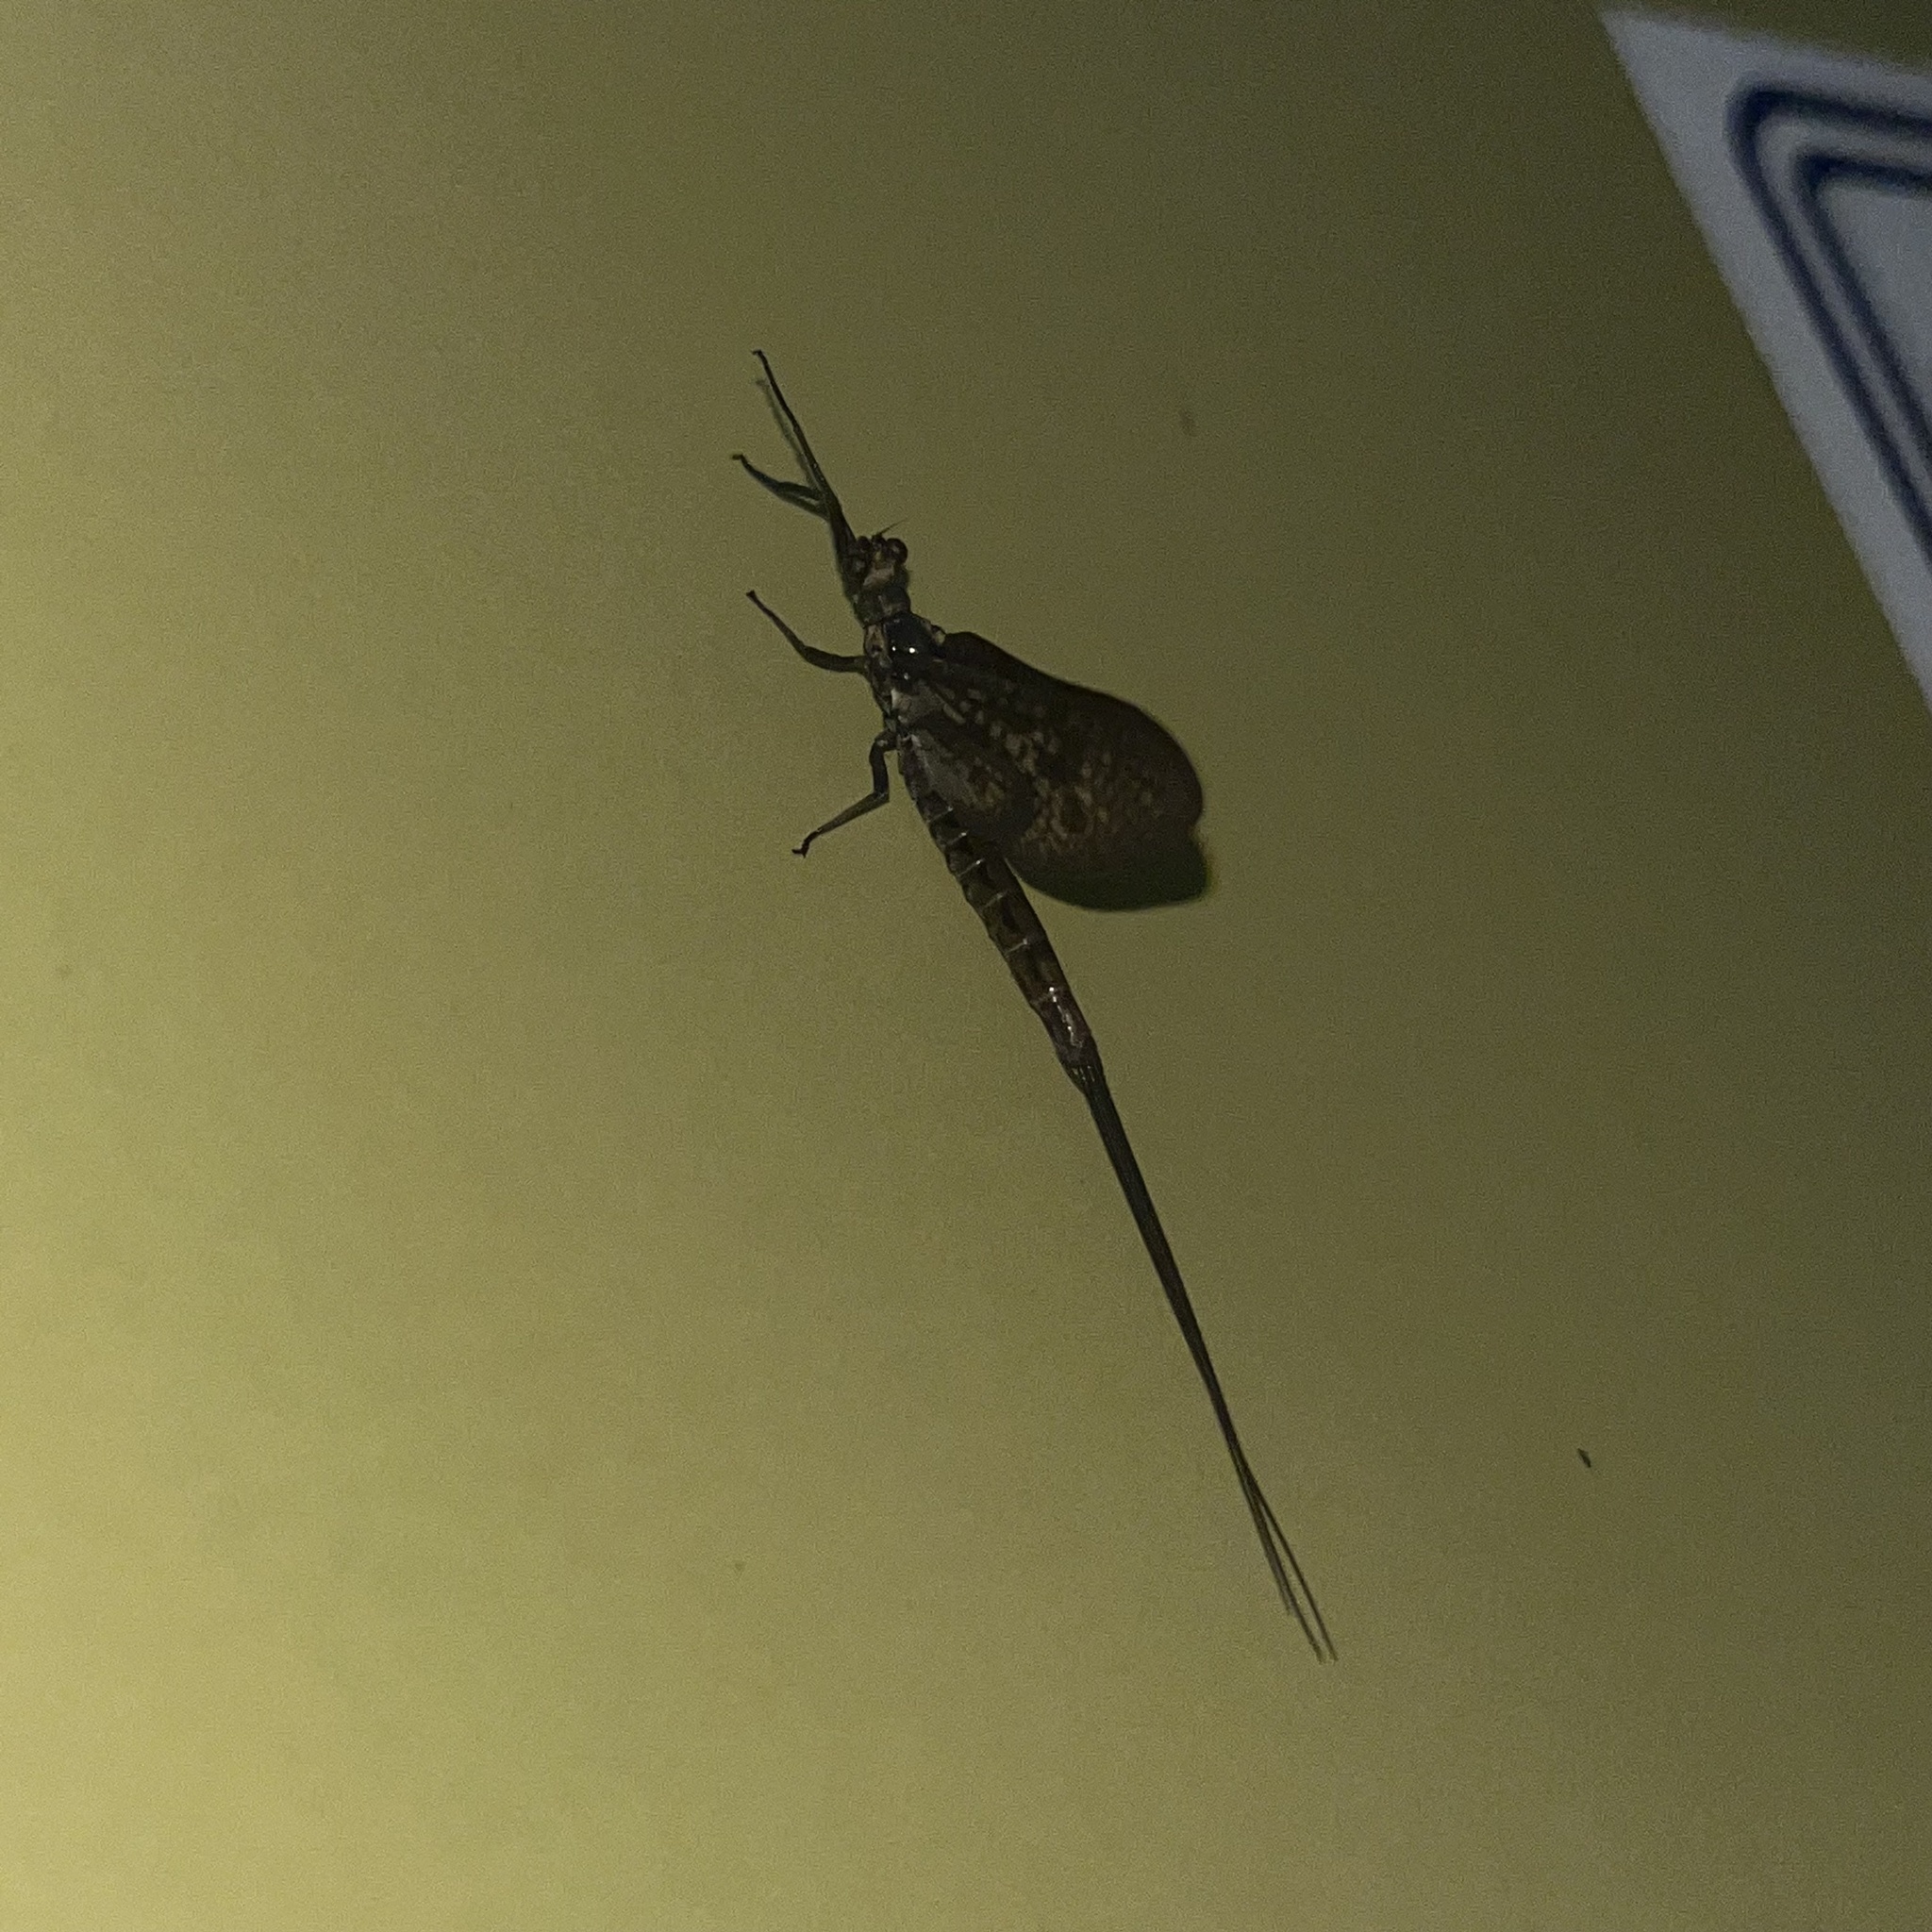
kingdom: Animalia
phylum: Arthropoda
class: Insecta
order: Ephemeroptera
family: Ephemeridae
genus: Ephemera
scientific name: Ephemera vulgata
